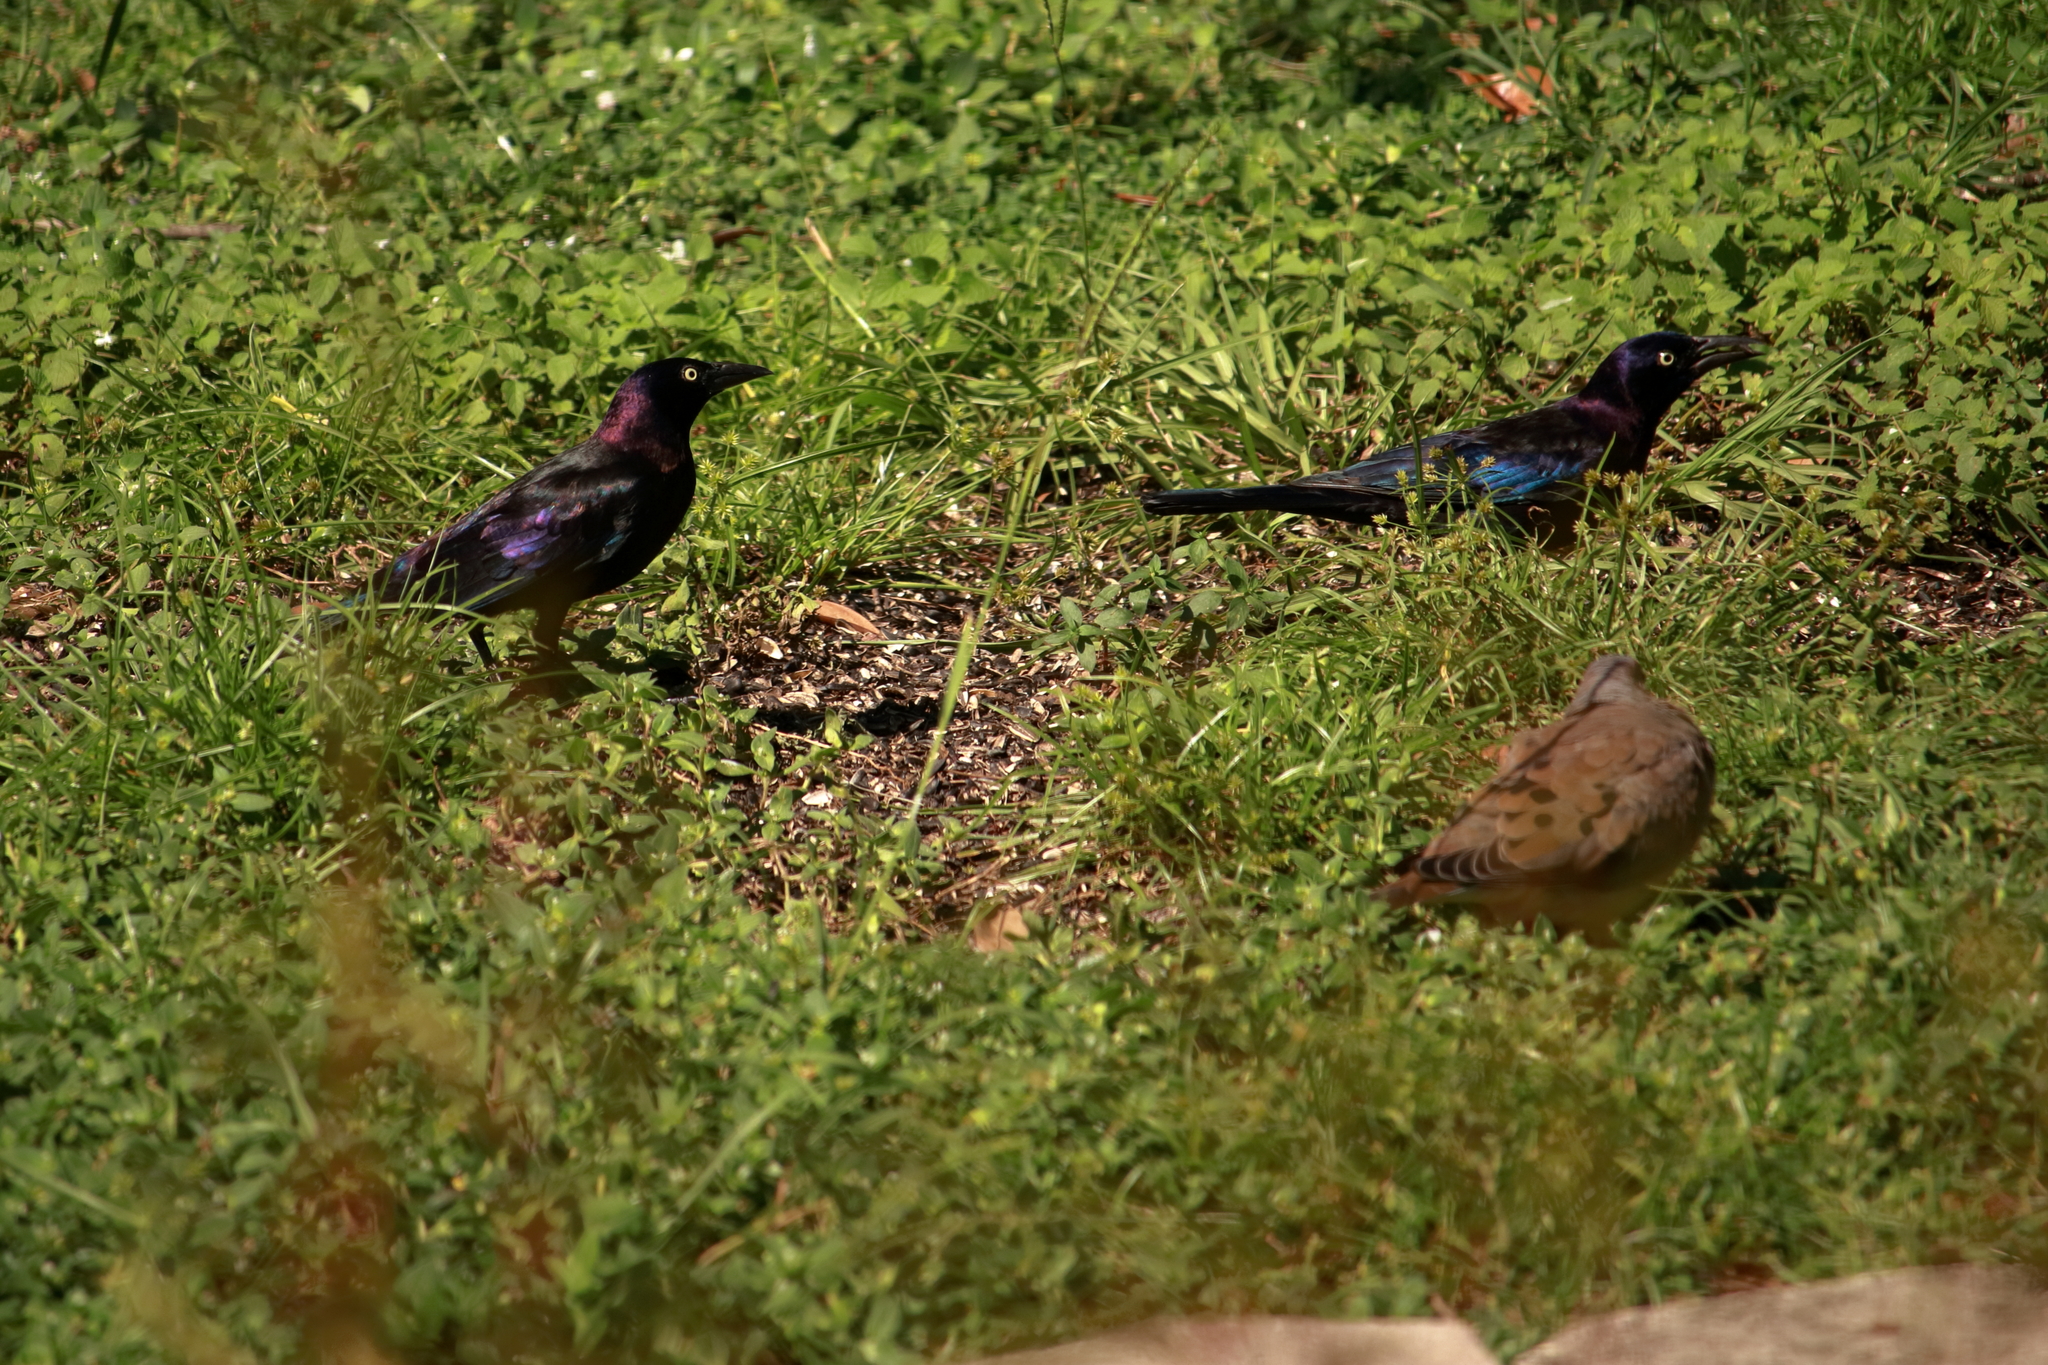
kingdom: Animalia
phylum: Chordata
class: Aves
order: Passeriformes
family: Icteridae
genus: Quiscalus
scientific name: Quiscalus quiscula
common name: Common grackle
